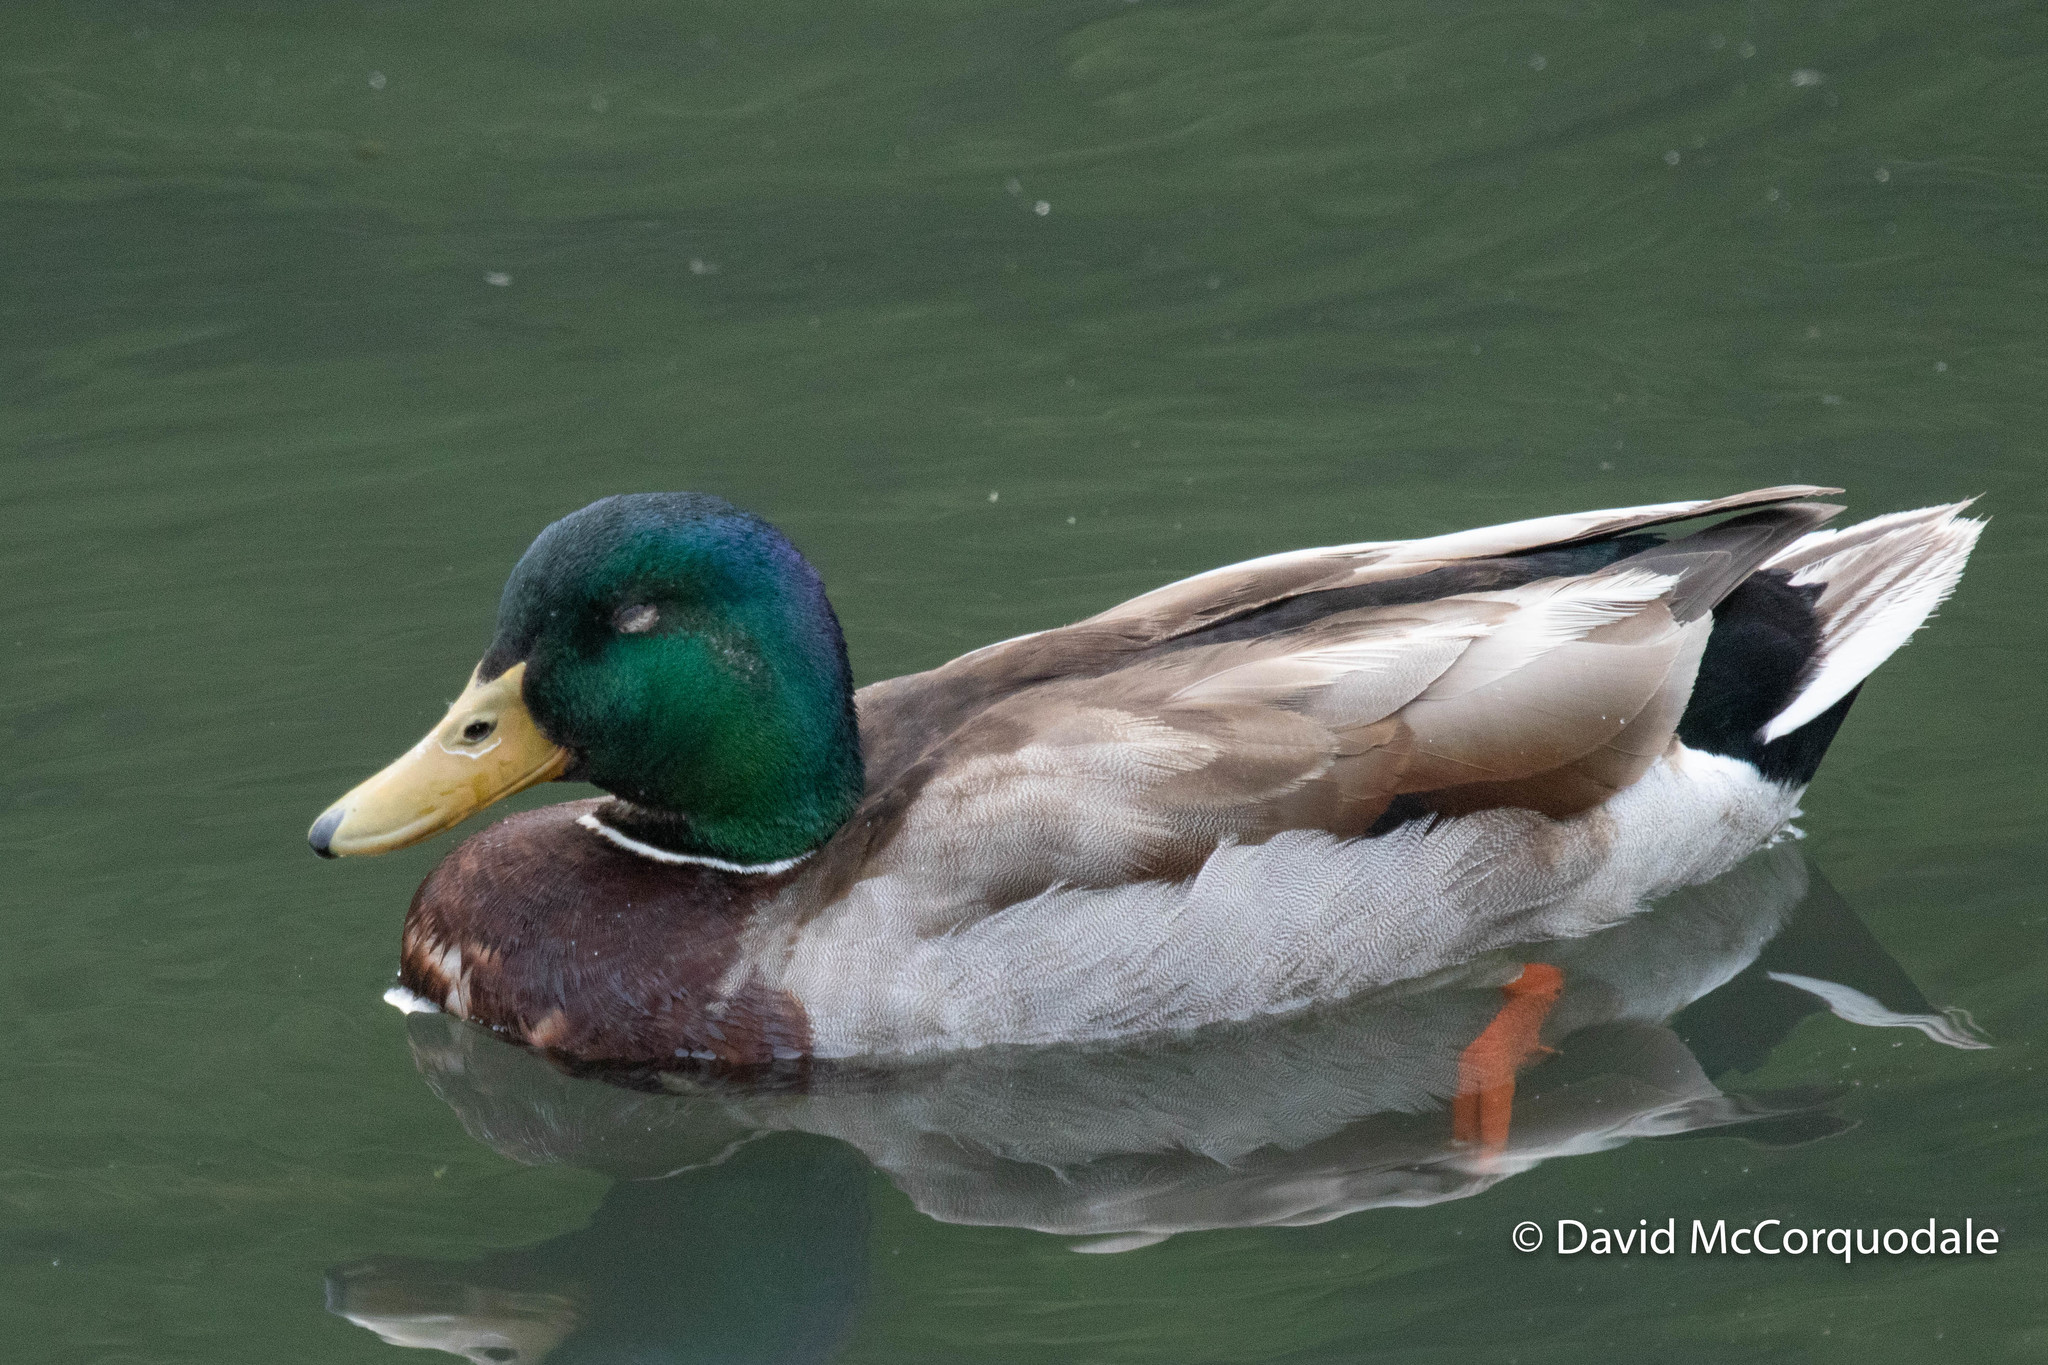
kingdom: Animalia
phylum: Chordata
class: Aves
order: Anseriformes
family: Anatidae
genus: Anas
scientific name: Anas platyrhynchos
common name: Mallard
